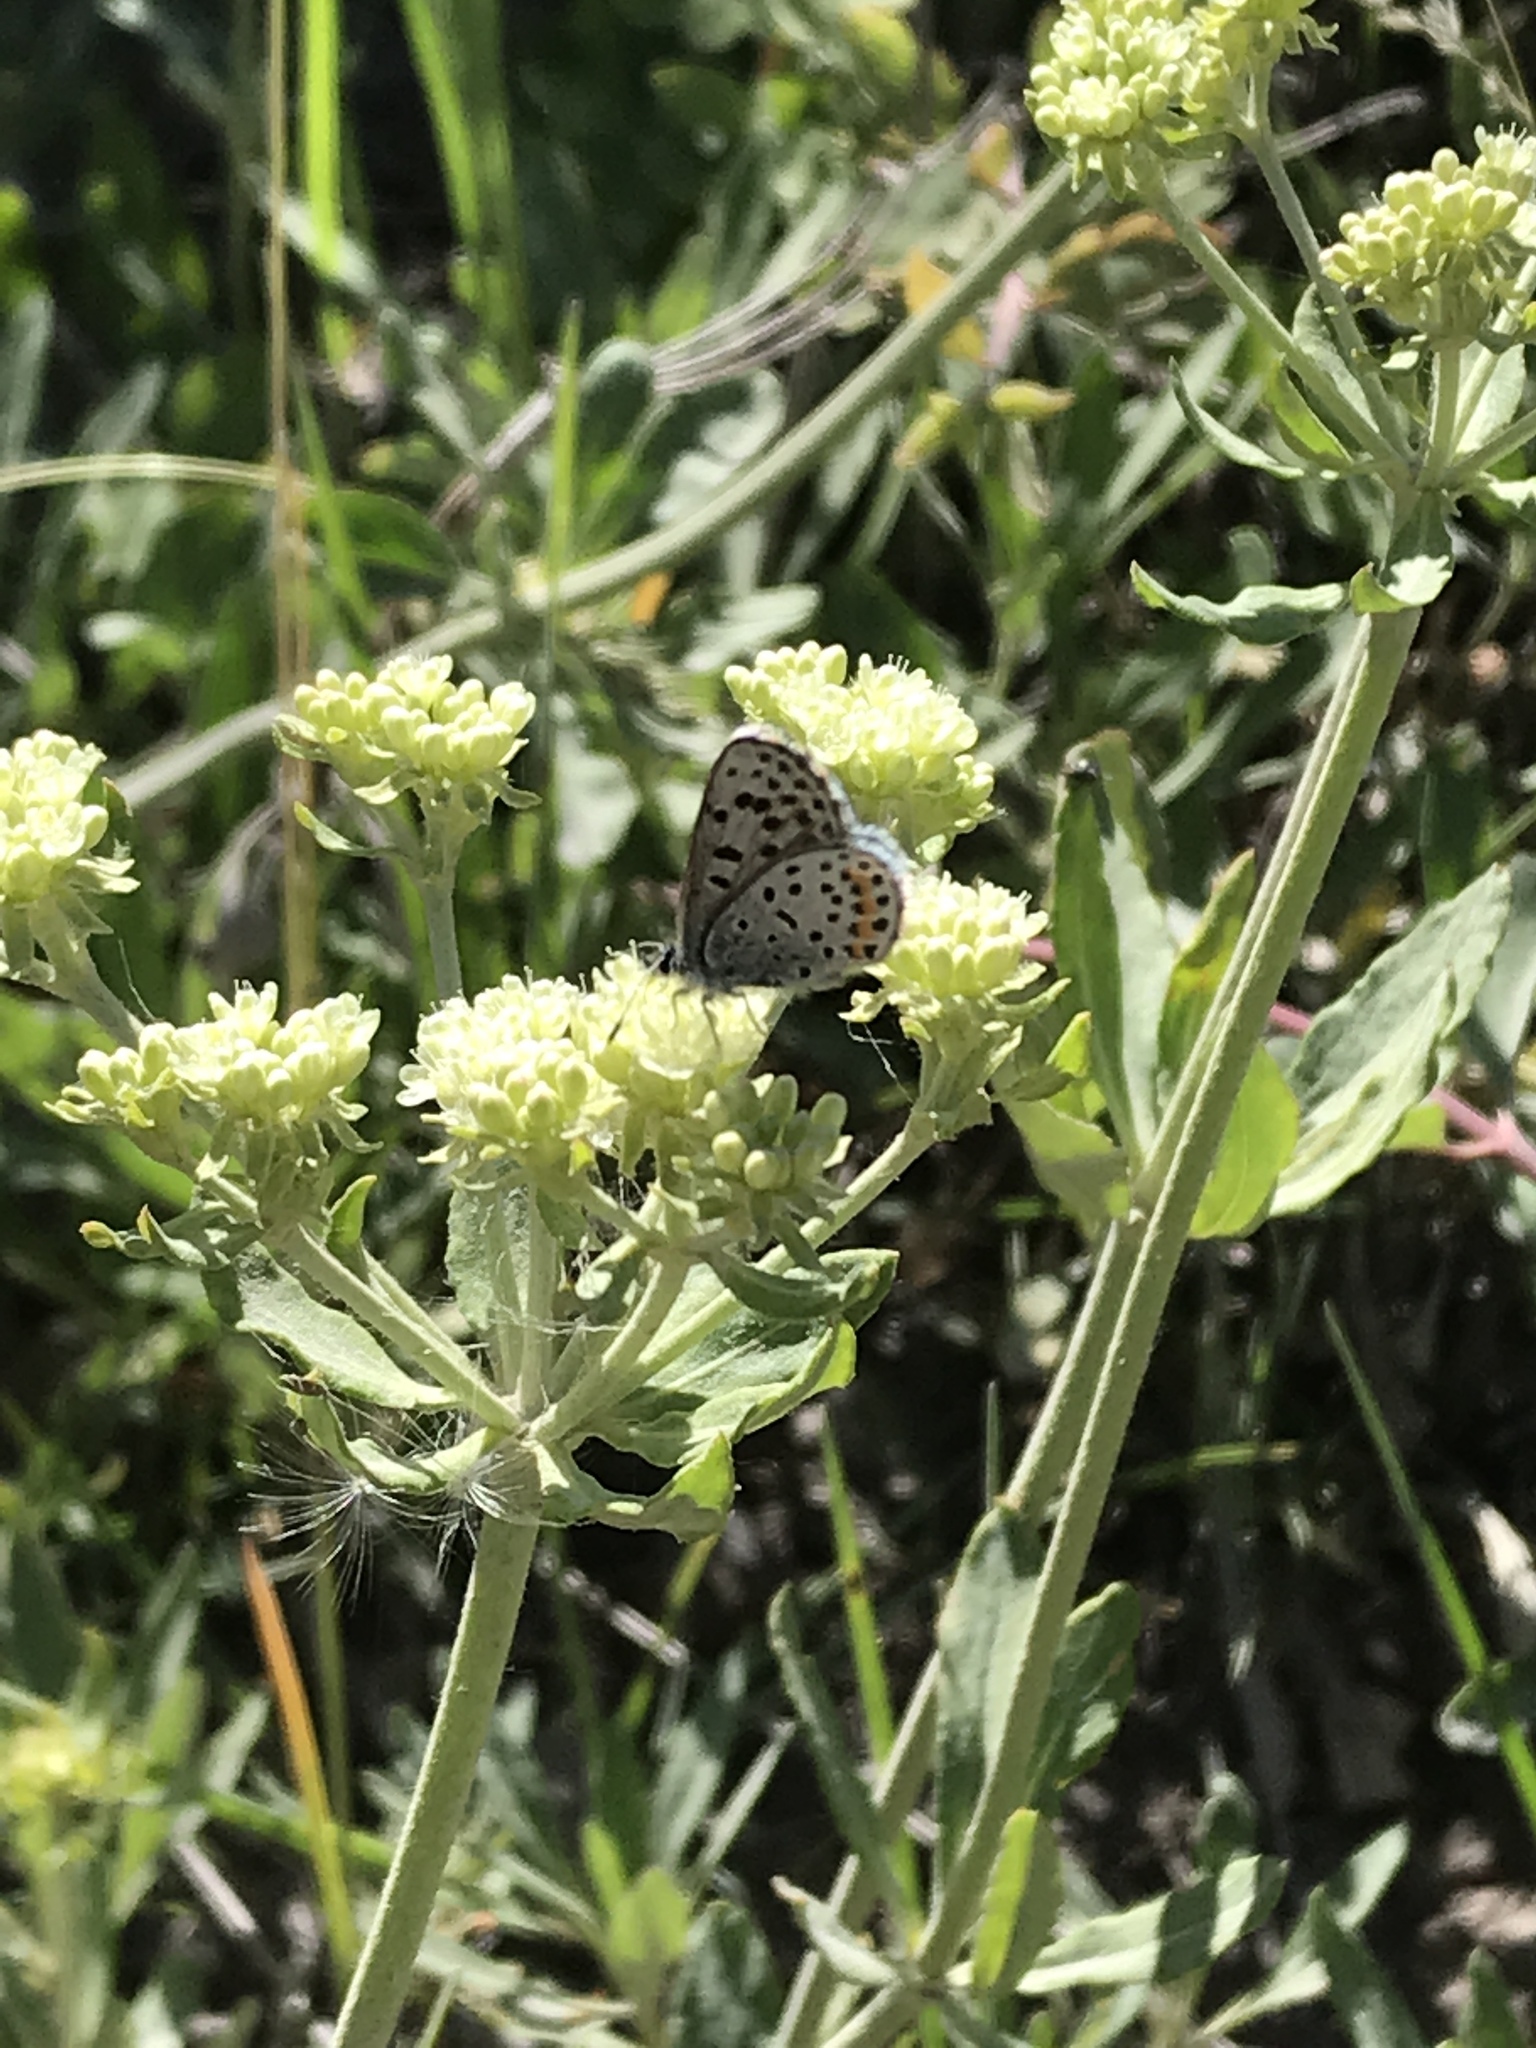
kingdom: Animalia
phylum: Arthropoda
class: Insecta
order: Lepidoptera
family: Lycaenidae
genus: Euphilotes
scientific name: Euphilotes enoptes
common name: Dotted blue
